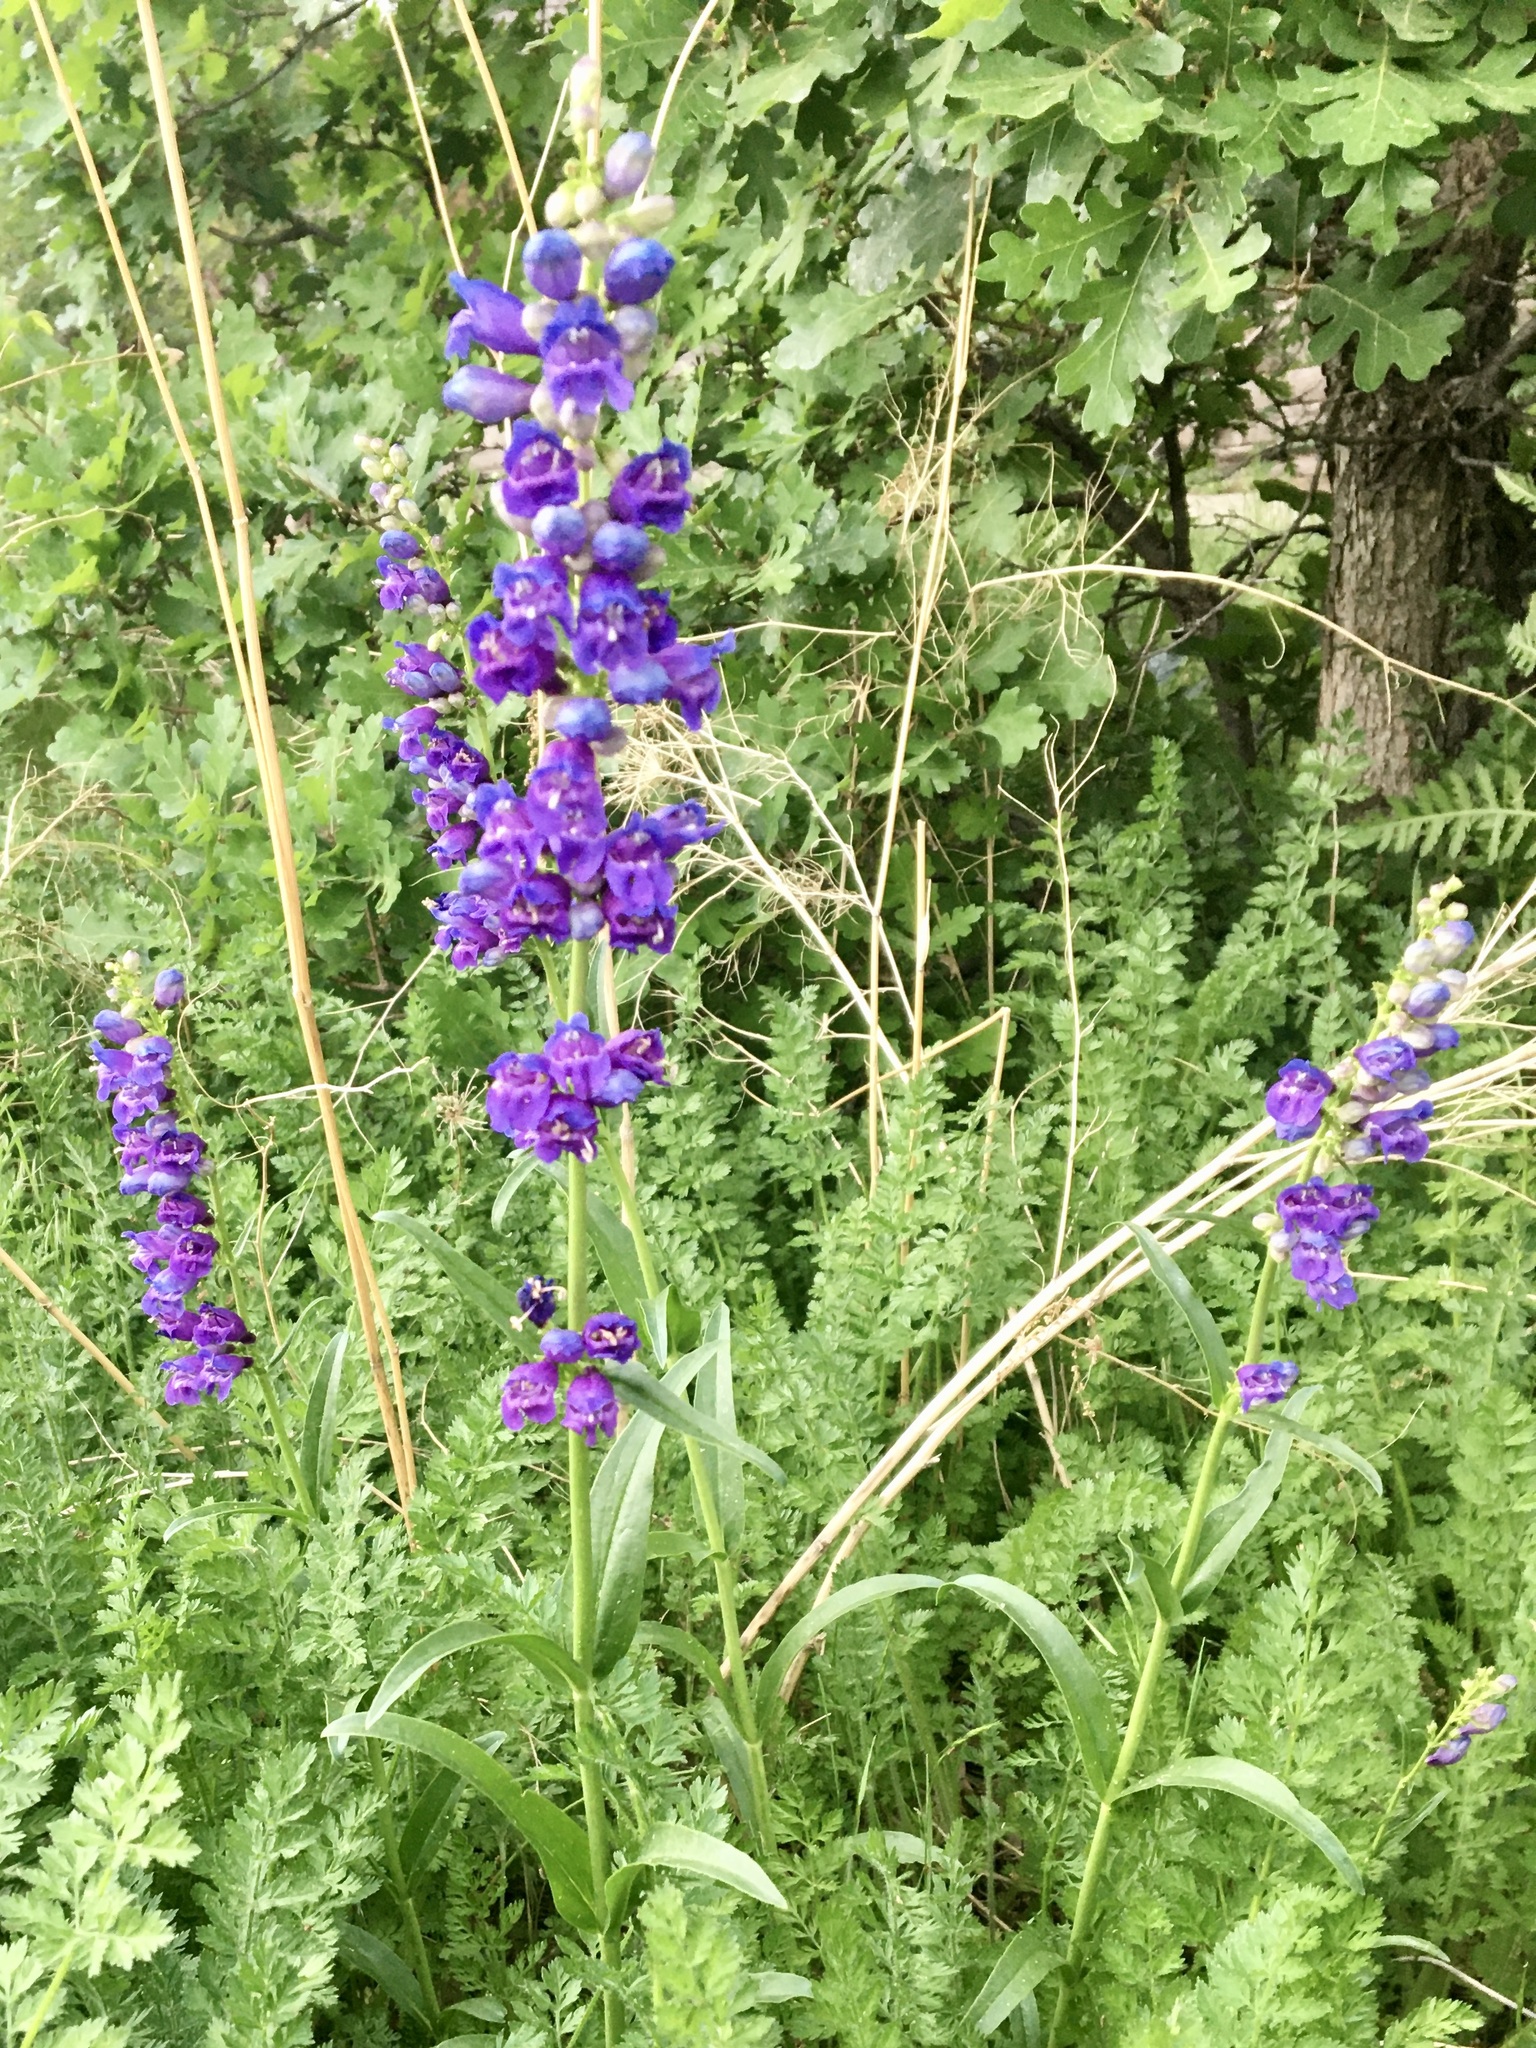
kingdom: Plantae
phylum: Tracheophyta
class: Magnoliopsida
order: Lamiales
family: Plantaginaceae
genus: Penstemon
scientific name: Penstemon strictus
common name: Rocky mountain penstemon
